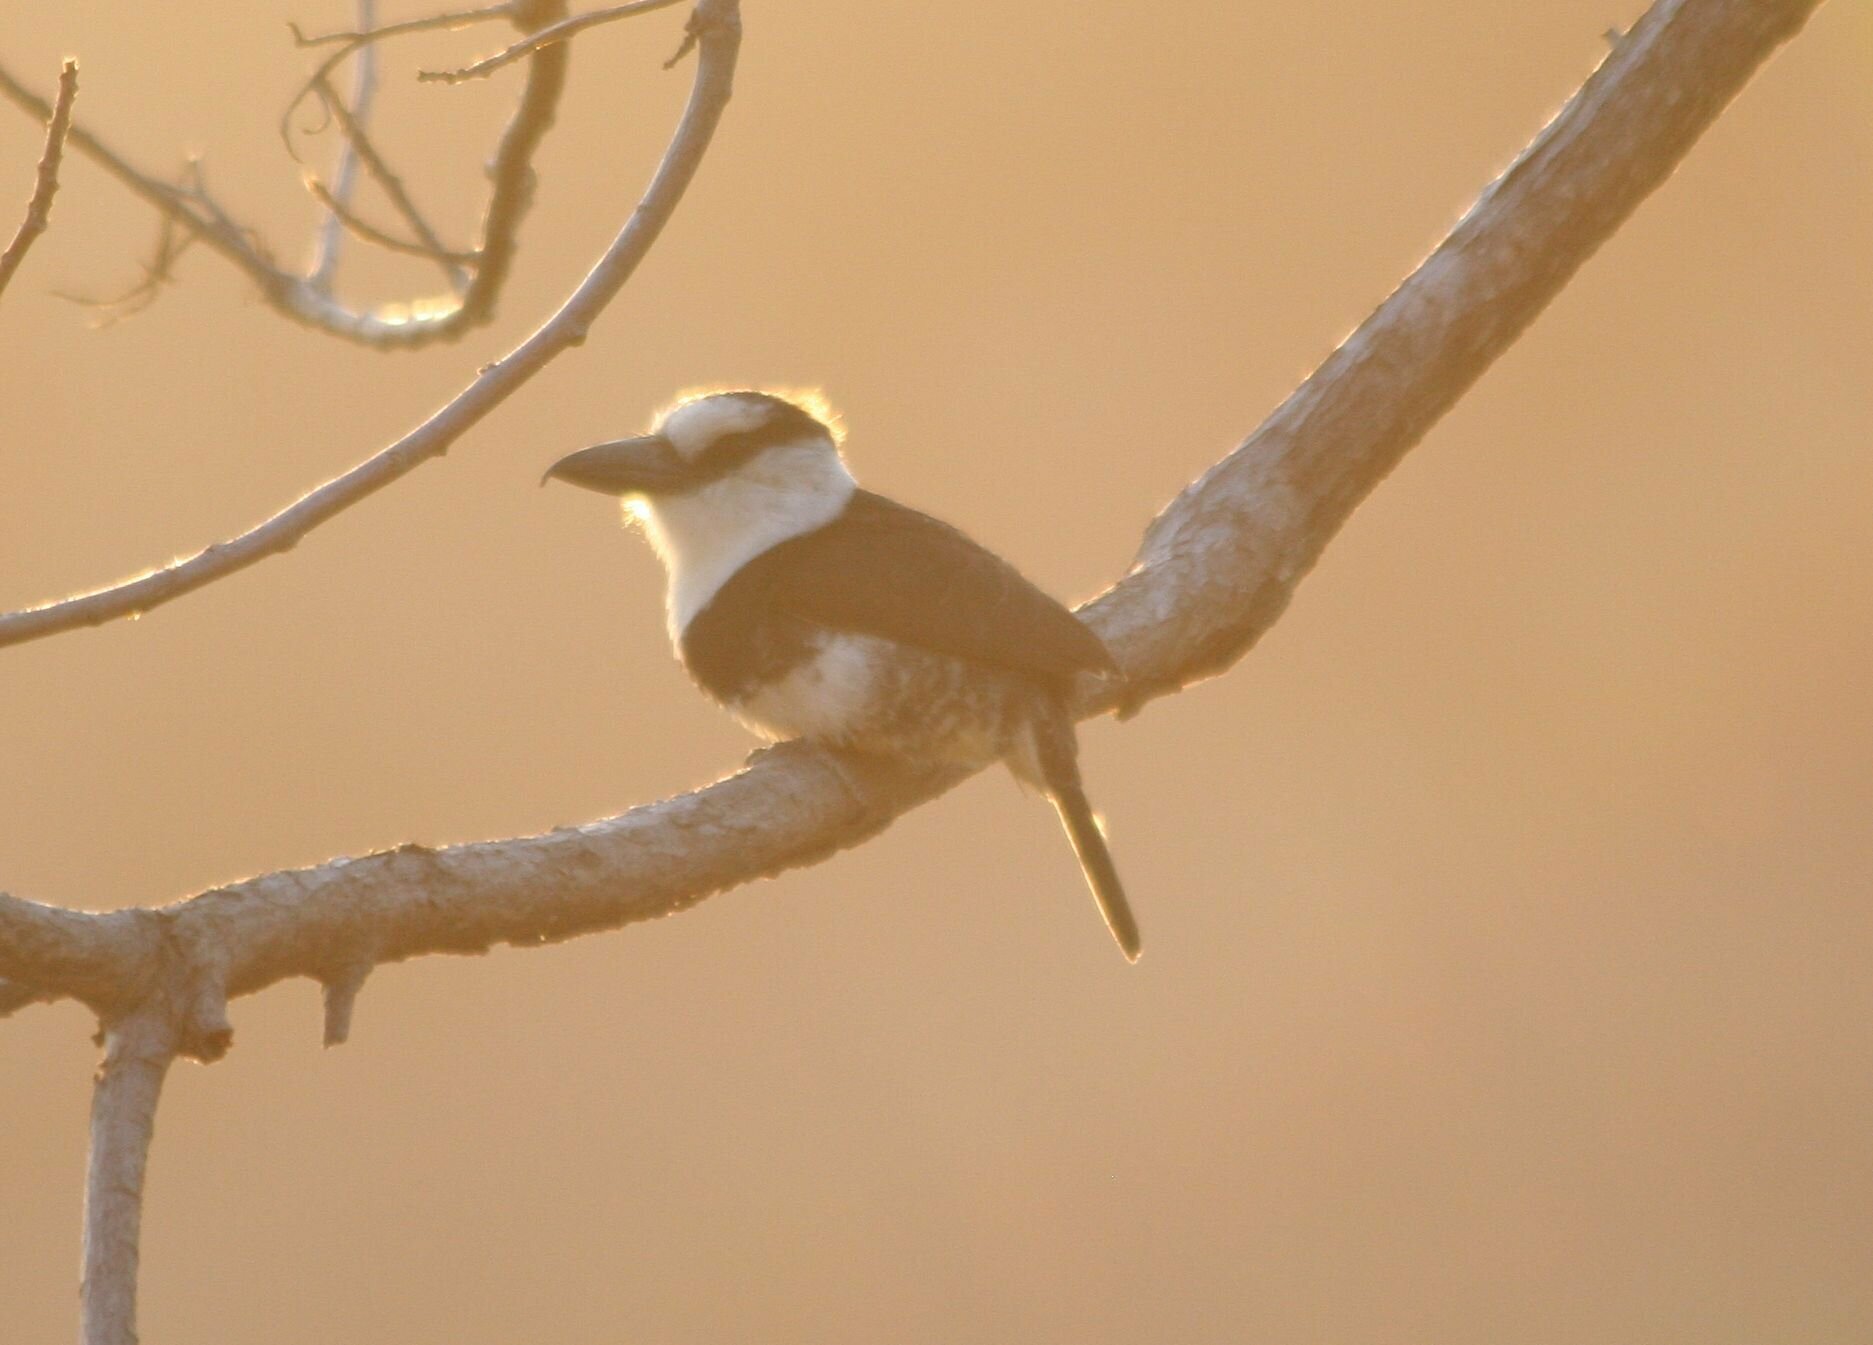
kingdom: Animalia
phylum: Chordata
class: Aves
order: Piciformes
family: Bucconidae
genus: Notharchus
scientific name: Notharchus hyperrhynchus
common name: White-necked puffbird
